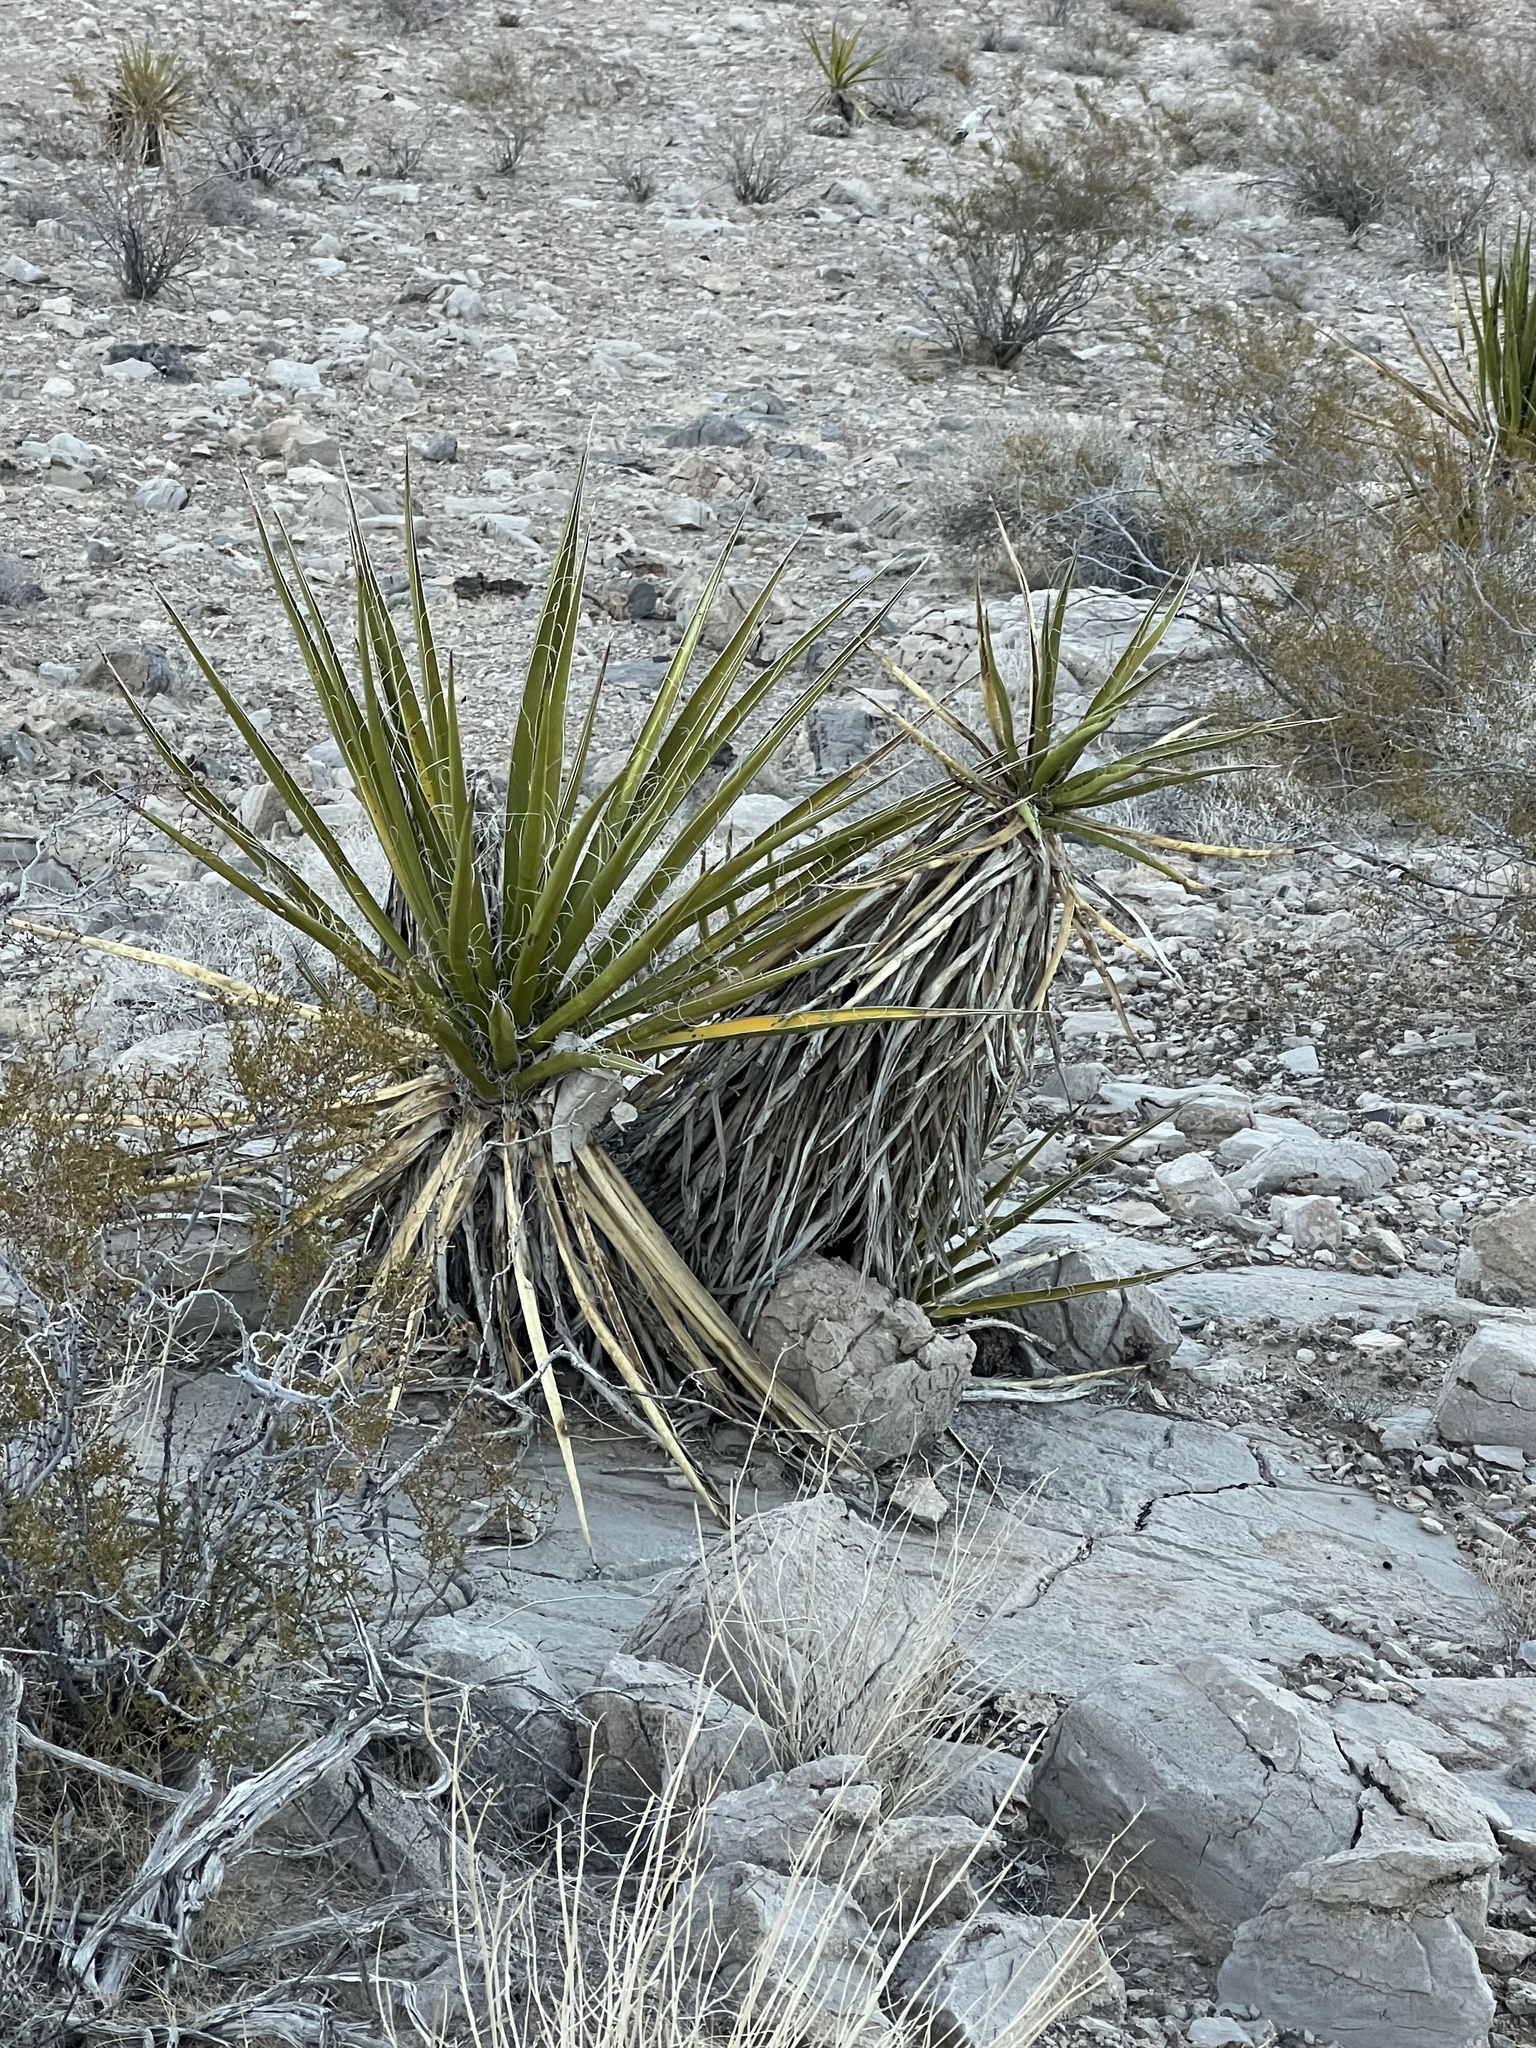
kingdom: Plantae
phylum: Tracheophyta
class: Liliopsida
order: Asparagales
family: Asparagaceae
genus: Yucca
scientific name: Yucca schidigera
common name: Mojave yucca
